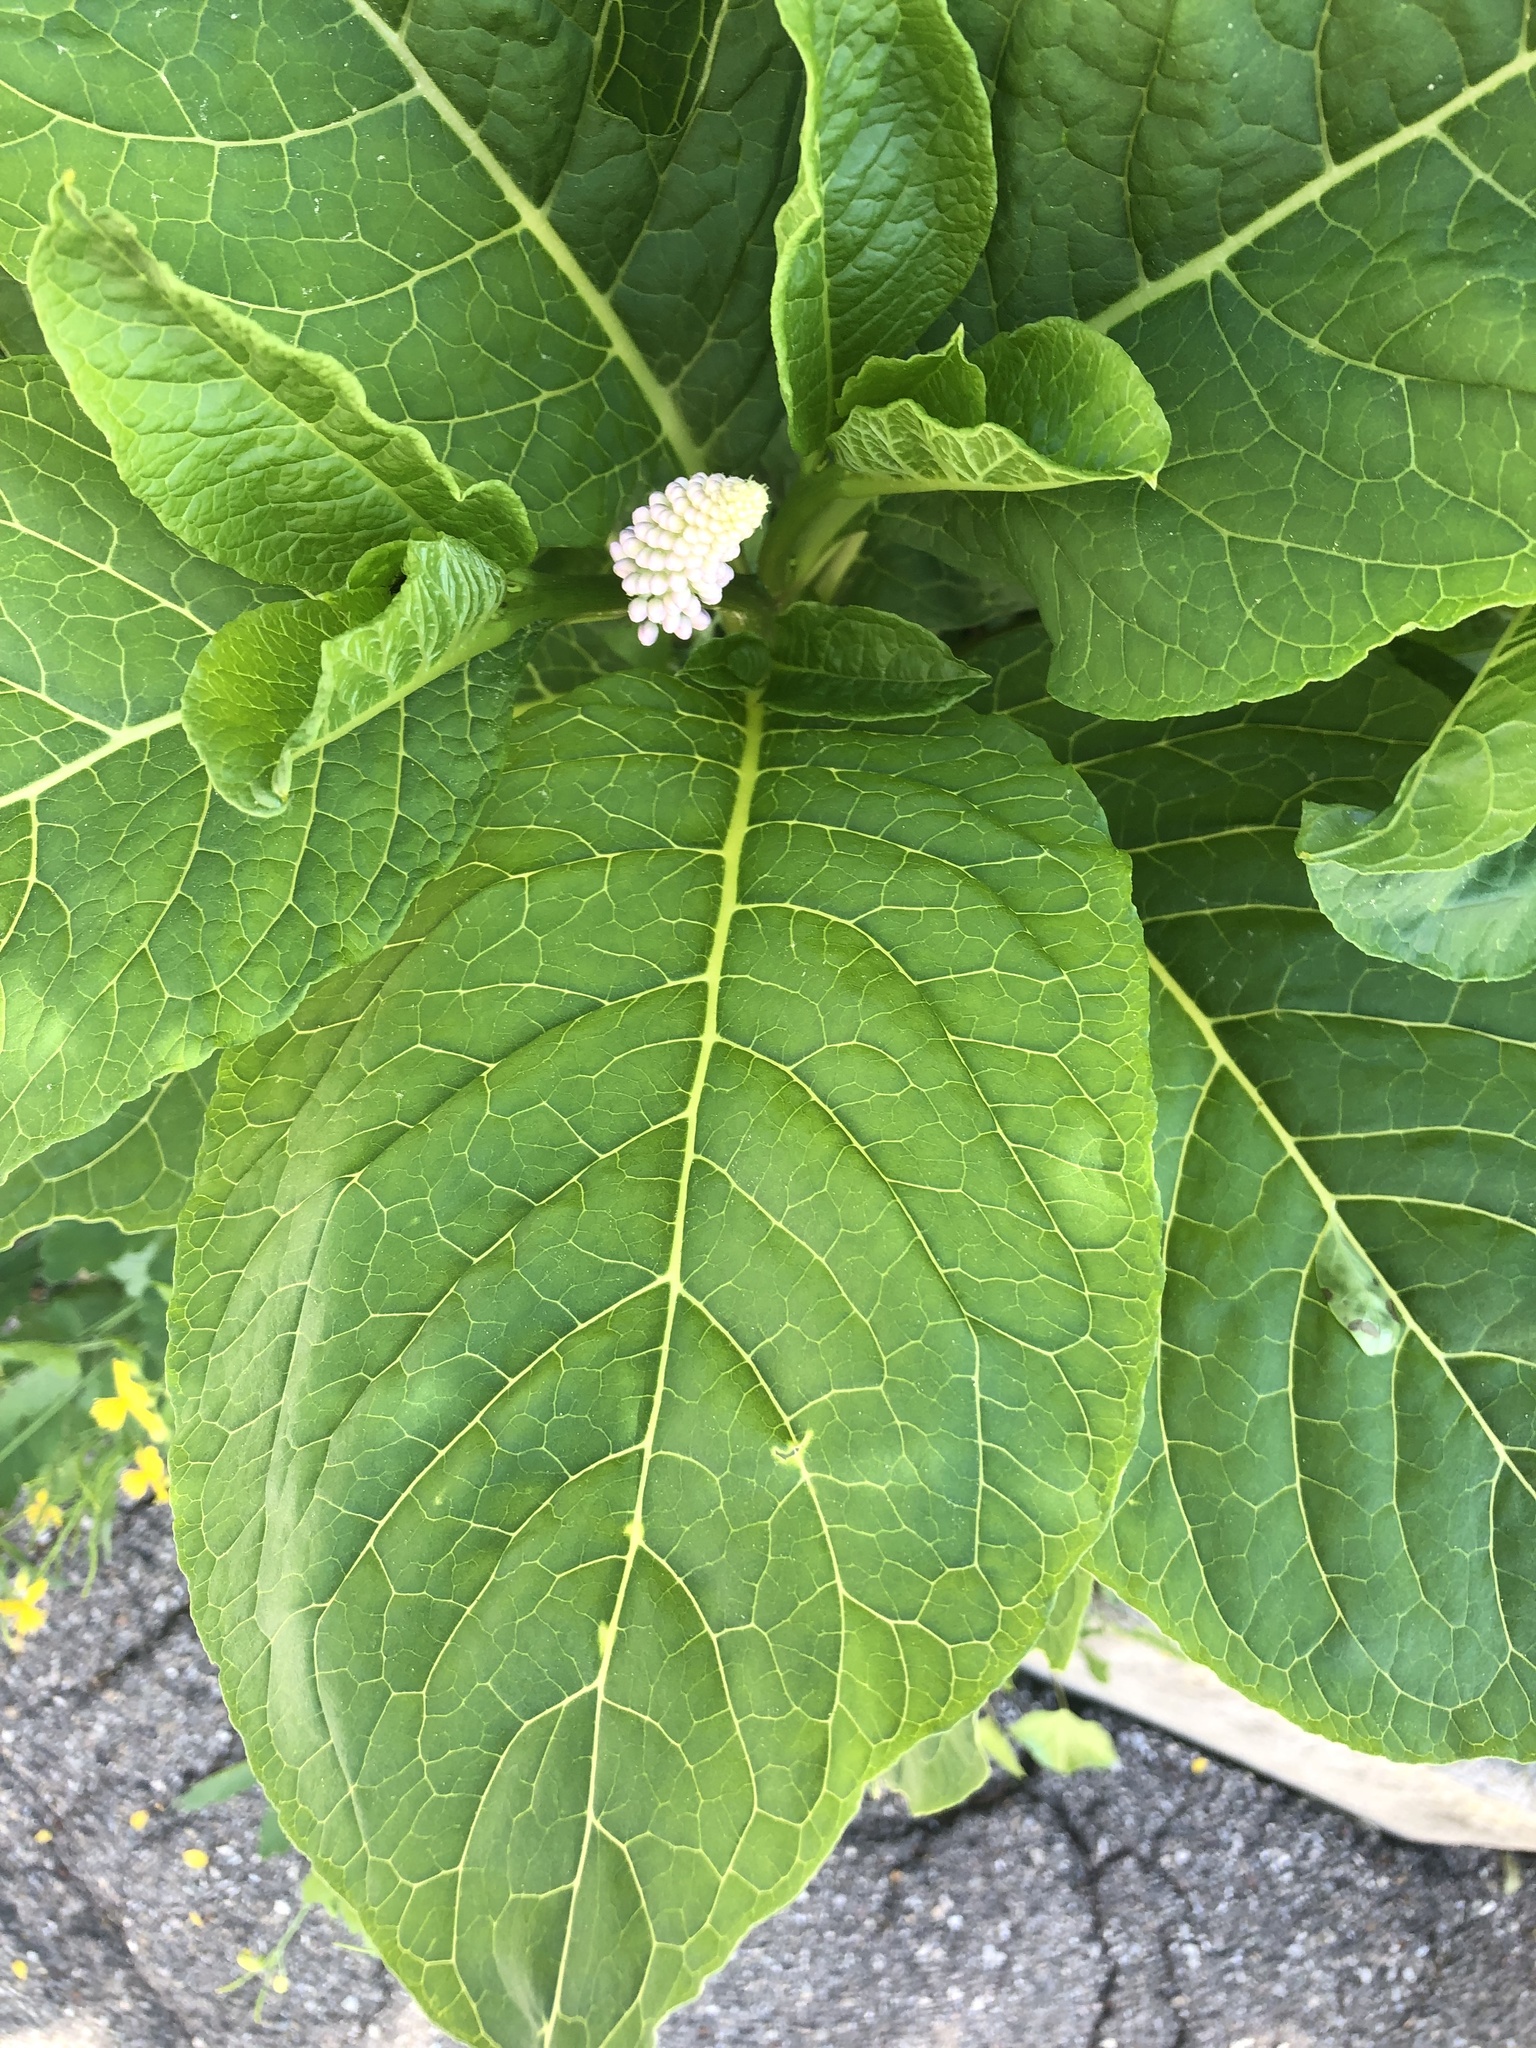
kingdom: Plantae
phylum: Tracheophyta
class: Magnoliopsida
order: Caryophyllales
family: Phytolaccaceae
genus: Phytolacca
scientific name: Phytolacca acinosa
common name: Indian pokeweed
